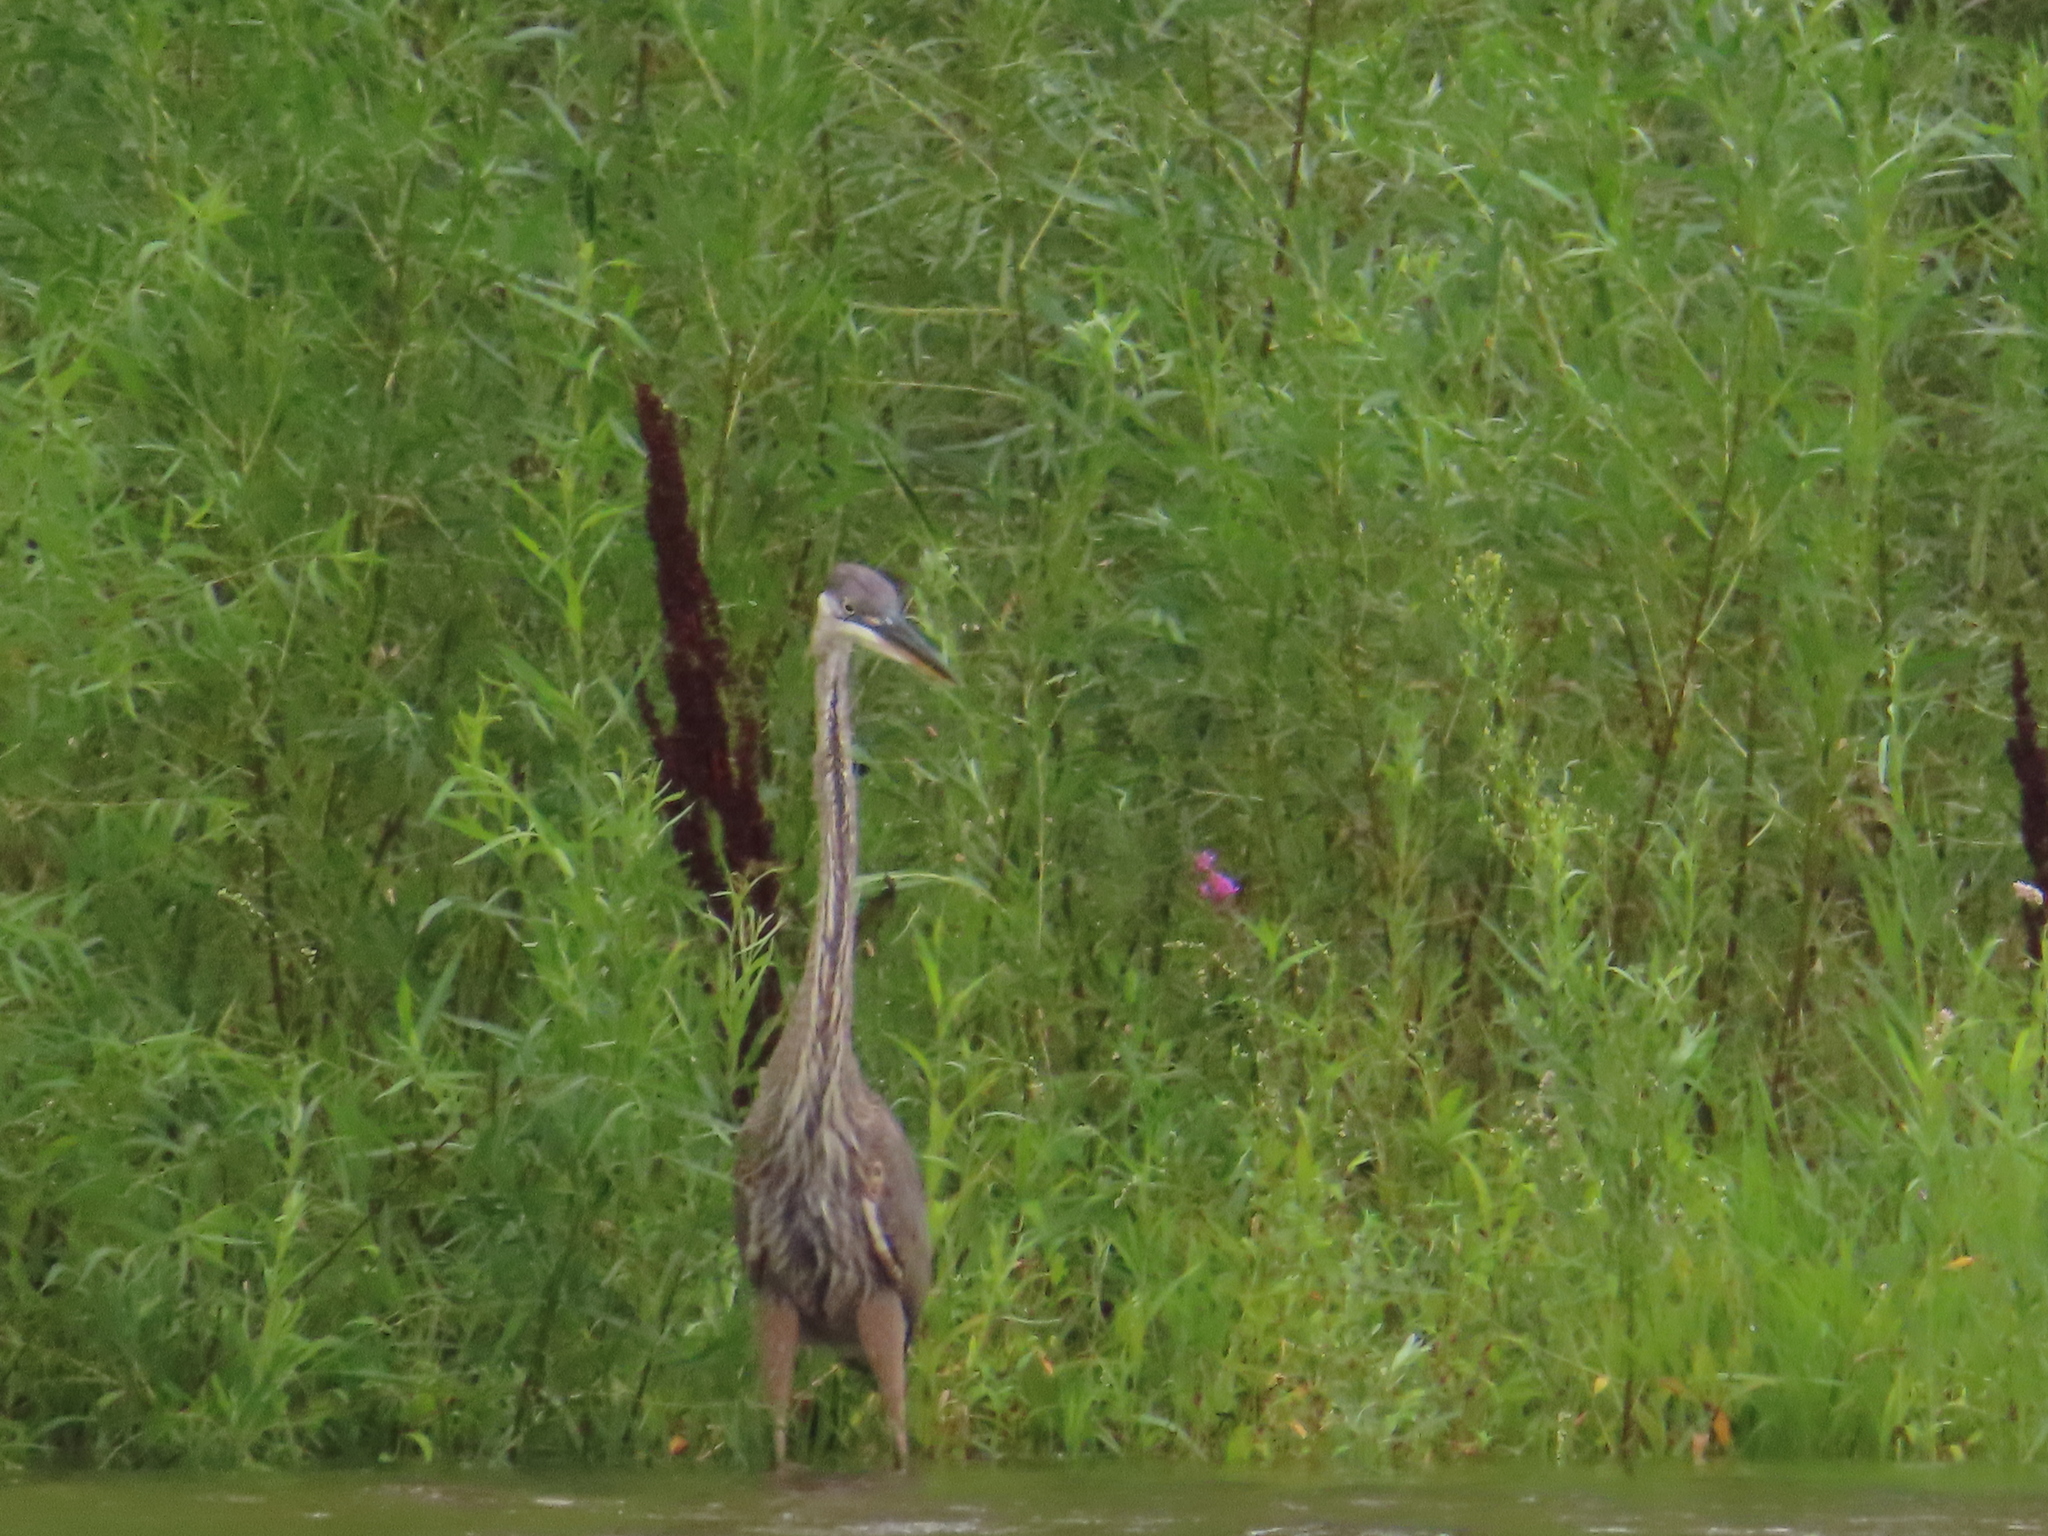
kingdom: Plantae
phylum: Tracheophyta
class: Magnoliopsida
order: Asterales
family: Asteraceae
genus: Erigeron
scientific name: Erigeron canadensis
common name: Canadian fleabane
